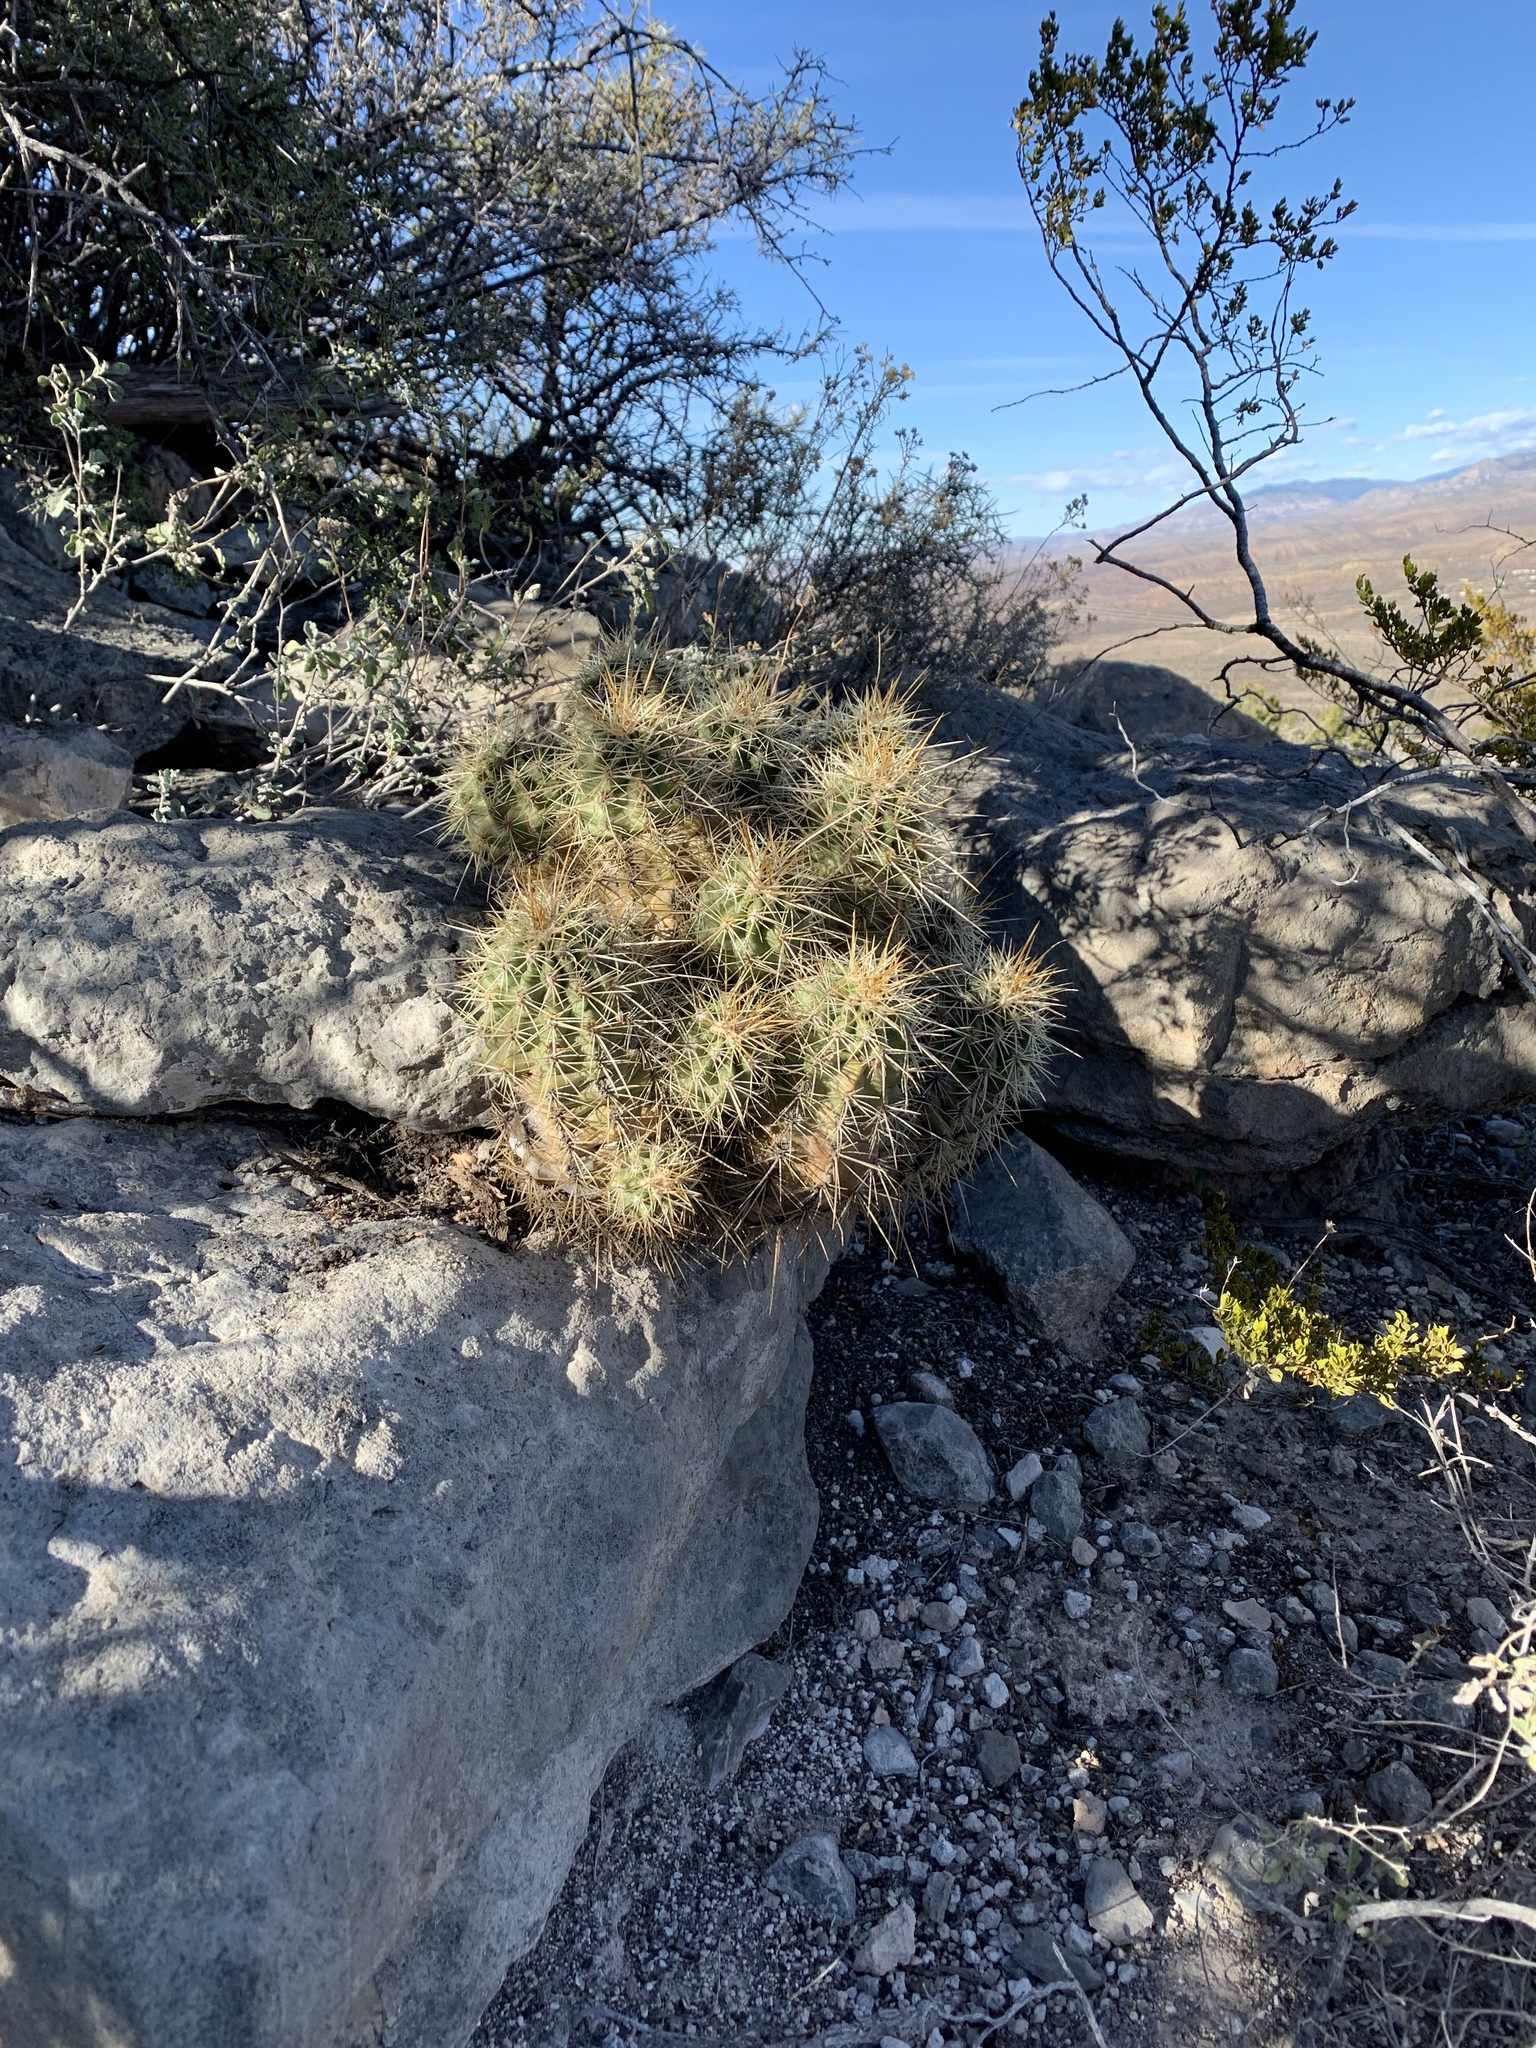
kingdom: Plantae
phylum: Tracheophyta
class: Magnoliopsida
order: Caryophyllales
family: Cactaceae
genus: Echinocereus
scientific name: Echinocereus coccineus
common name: Scarlet hedgehog cactus
